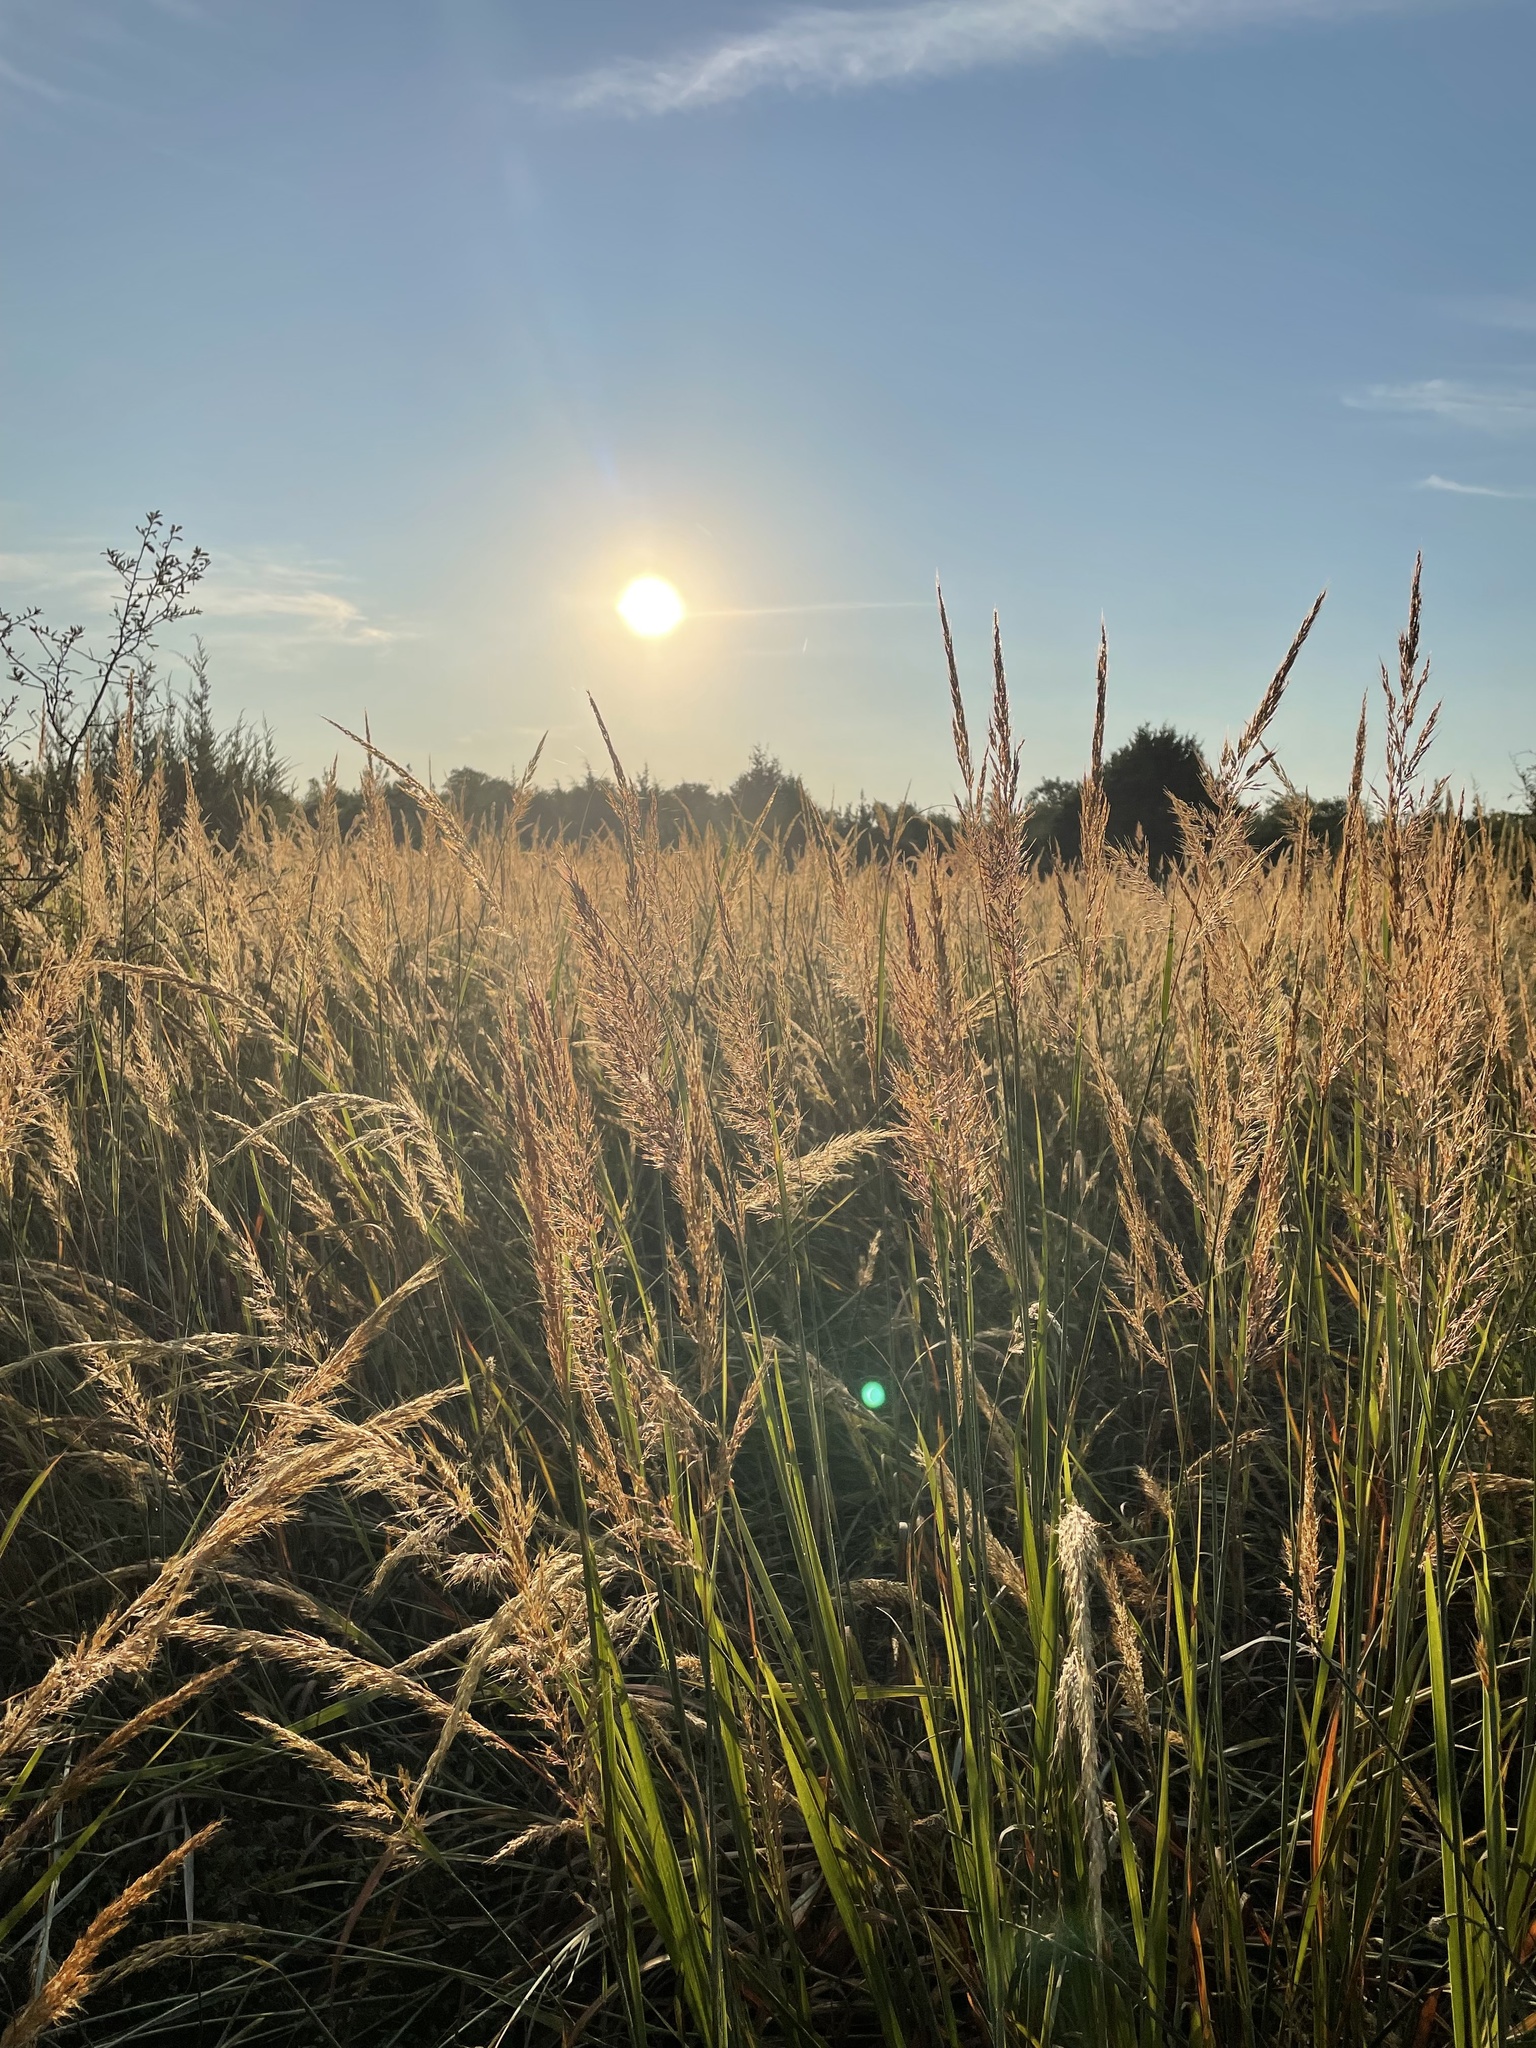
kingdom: Plantae
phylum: Tracheophyta
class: Liliopsida
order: Poales
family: Poaceae
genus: Sorghastrum
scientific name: Sorghastrum nutans
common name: Indian grass
